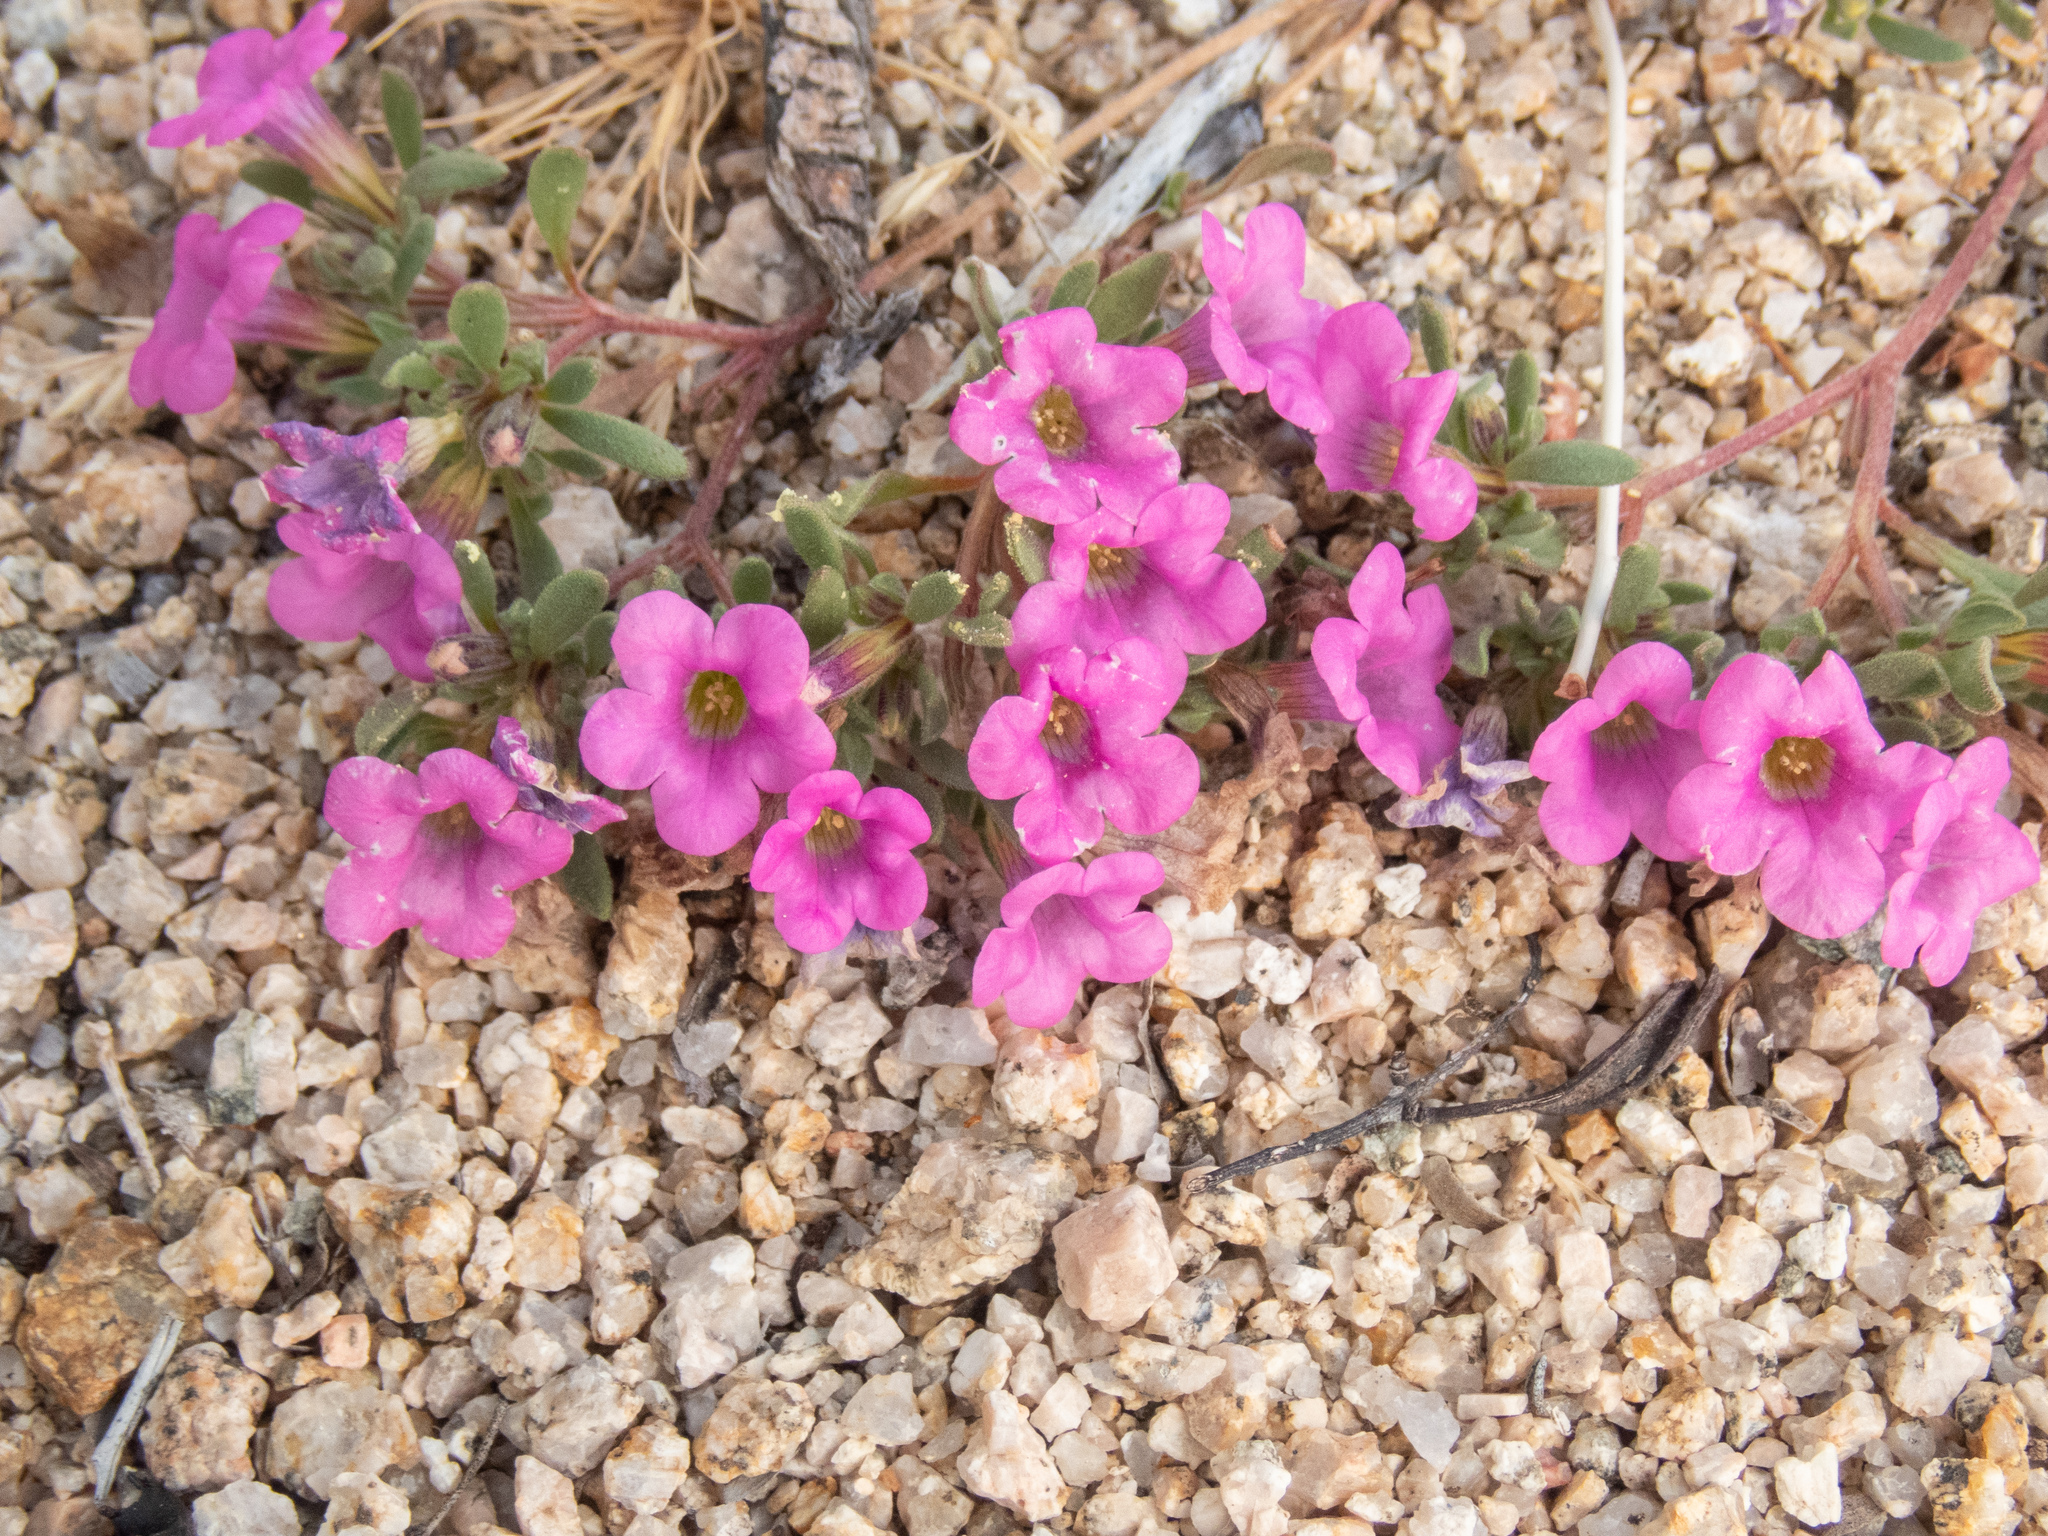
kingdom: Plantae
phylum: Tracheophyta
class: Magnoliopsida
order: Boraginales
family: Namaceae
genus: Nama
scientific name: Nama demissa
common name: Leafy nama
